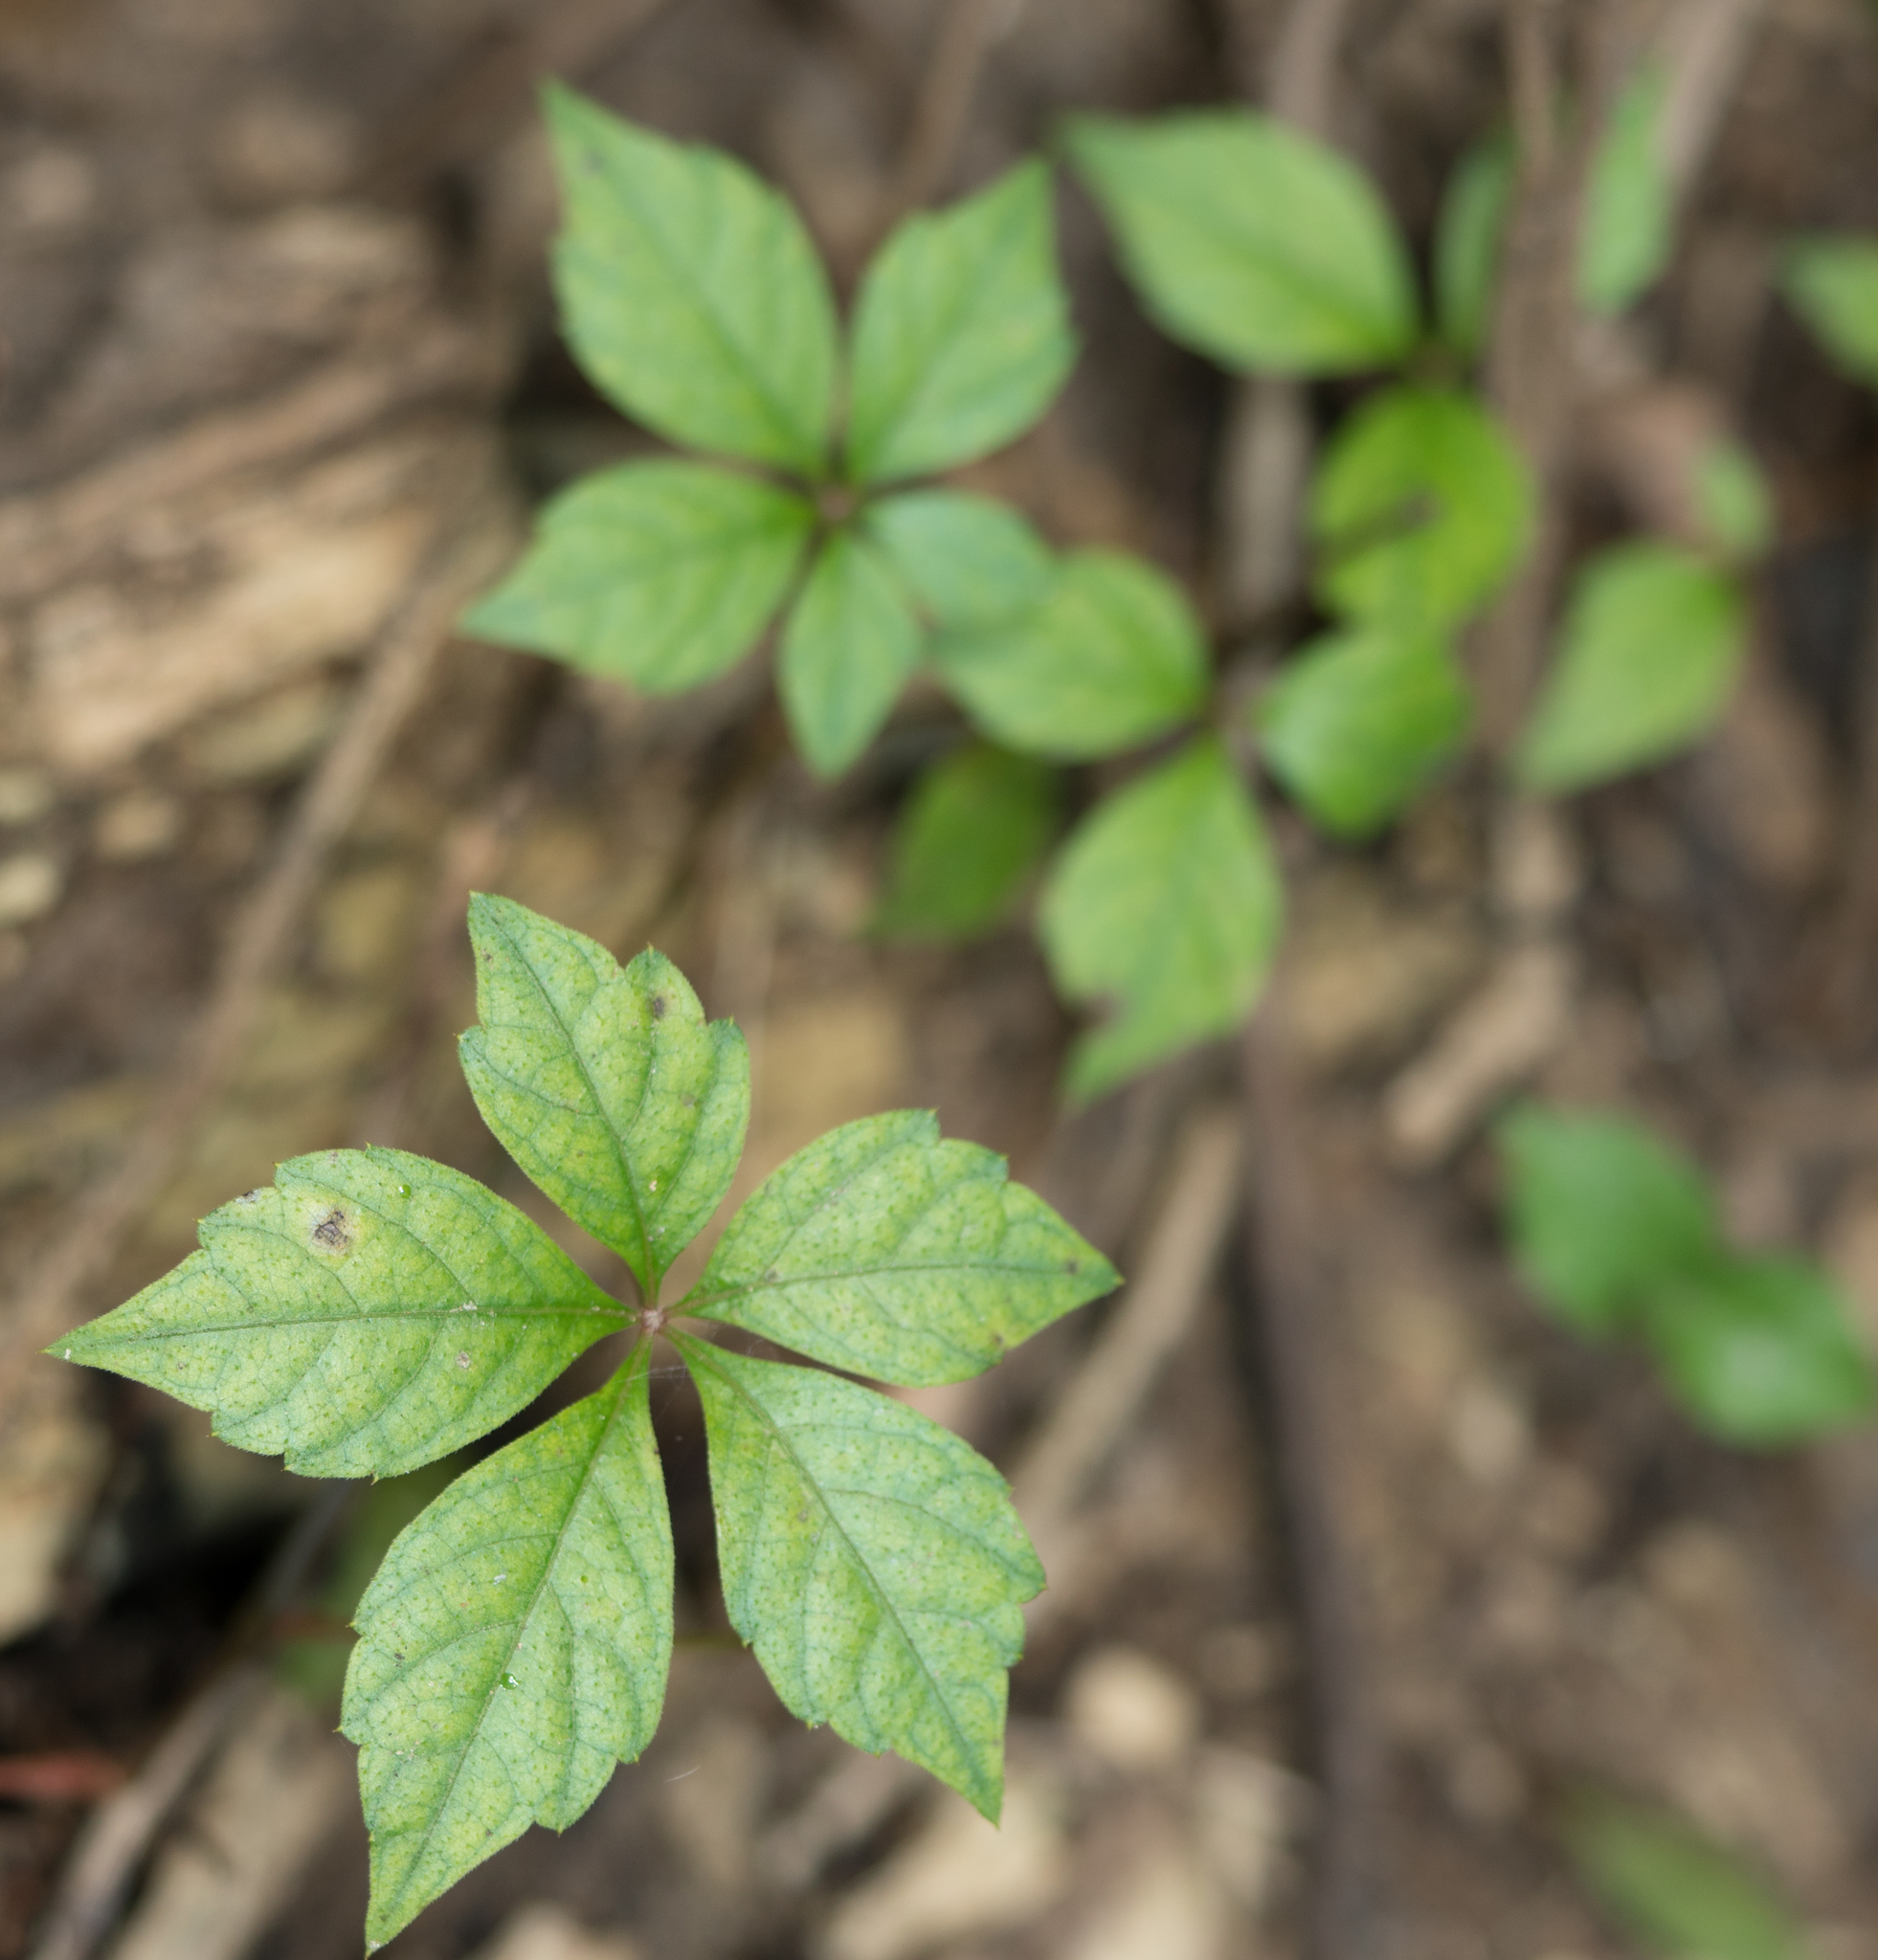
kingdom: Plantae
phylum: Tracheophyta
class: Magnoliopsida
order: Vitales
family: Vitaceae
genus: Parthenocissus
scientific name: Parthenocissus quinquefolia
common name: Virginia-creeper
